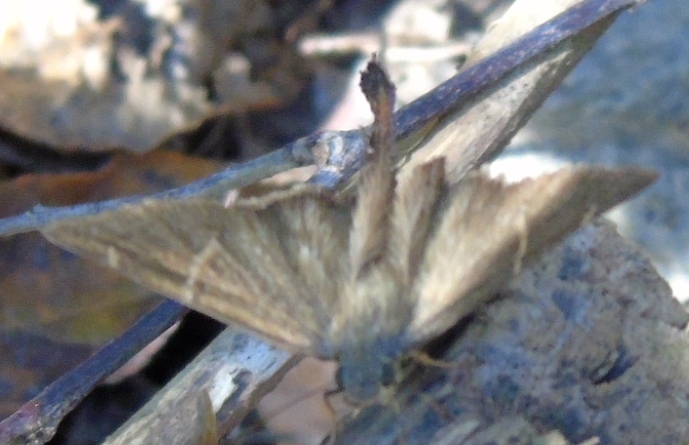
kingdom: Animalia
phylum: Arthropoda
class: Insecta
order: Lepidoptera
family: Hesperiidae
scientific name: Hesperiidae
